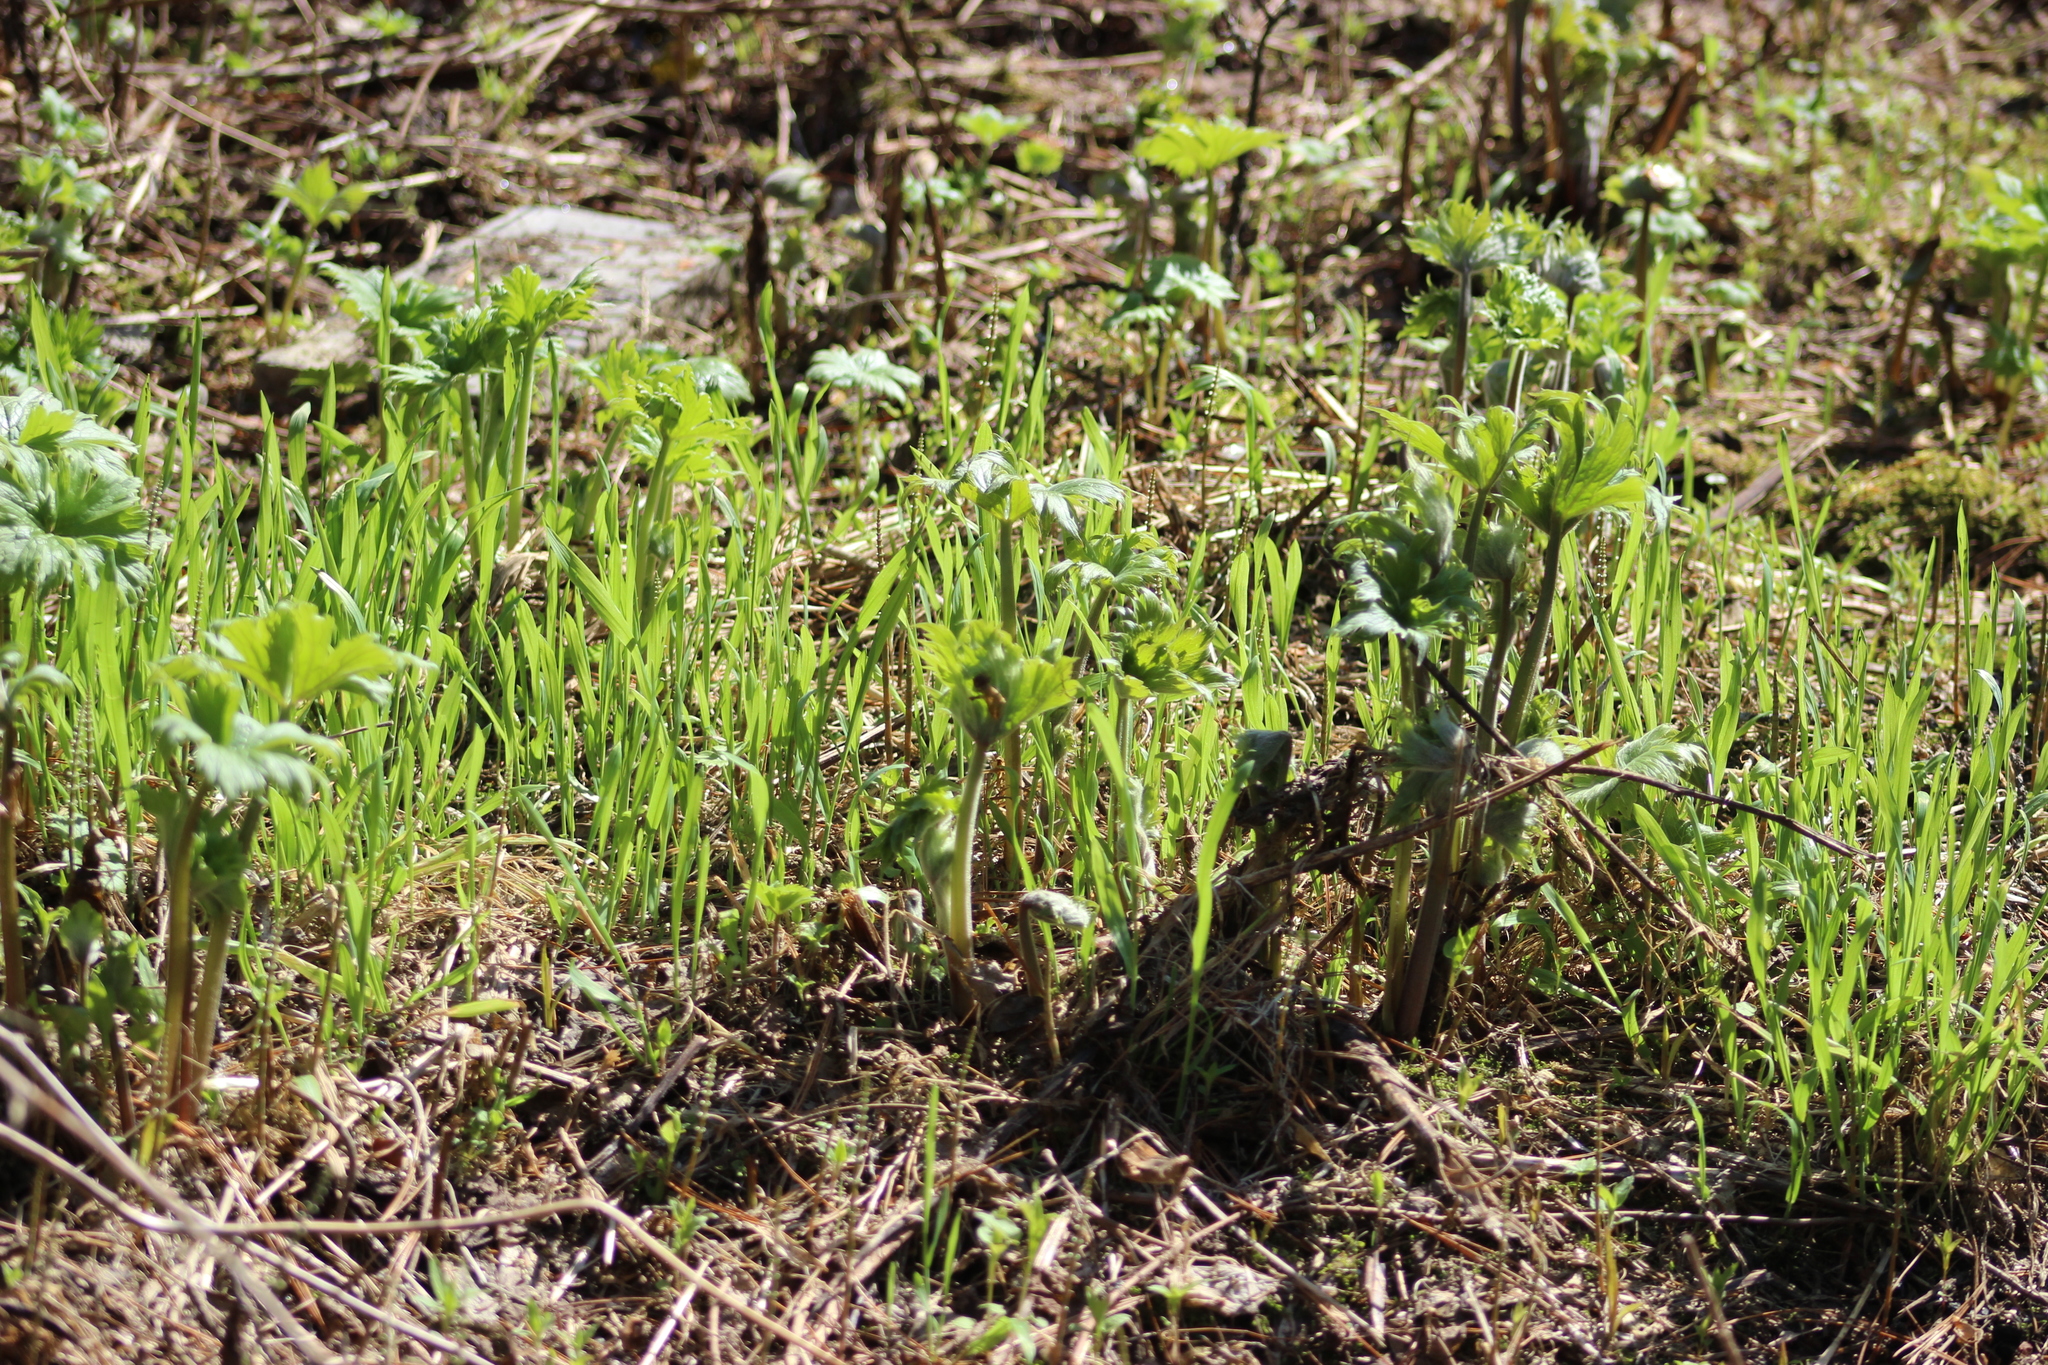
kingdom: Plantae
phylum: Tracheophyta
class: Magnoliopsida
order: Ranunculales
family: Ranunculaceae
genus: Aconitum
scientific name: Aconitum septentrionale
